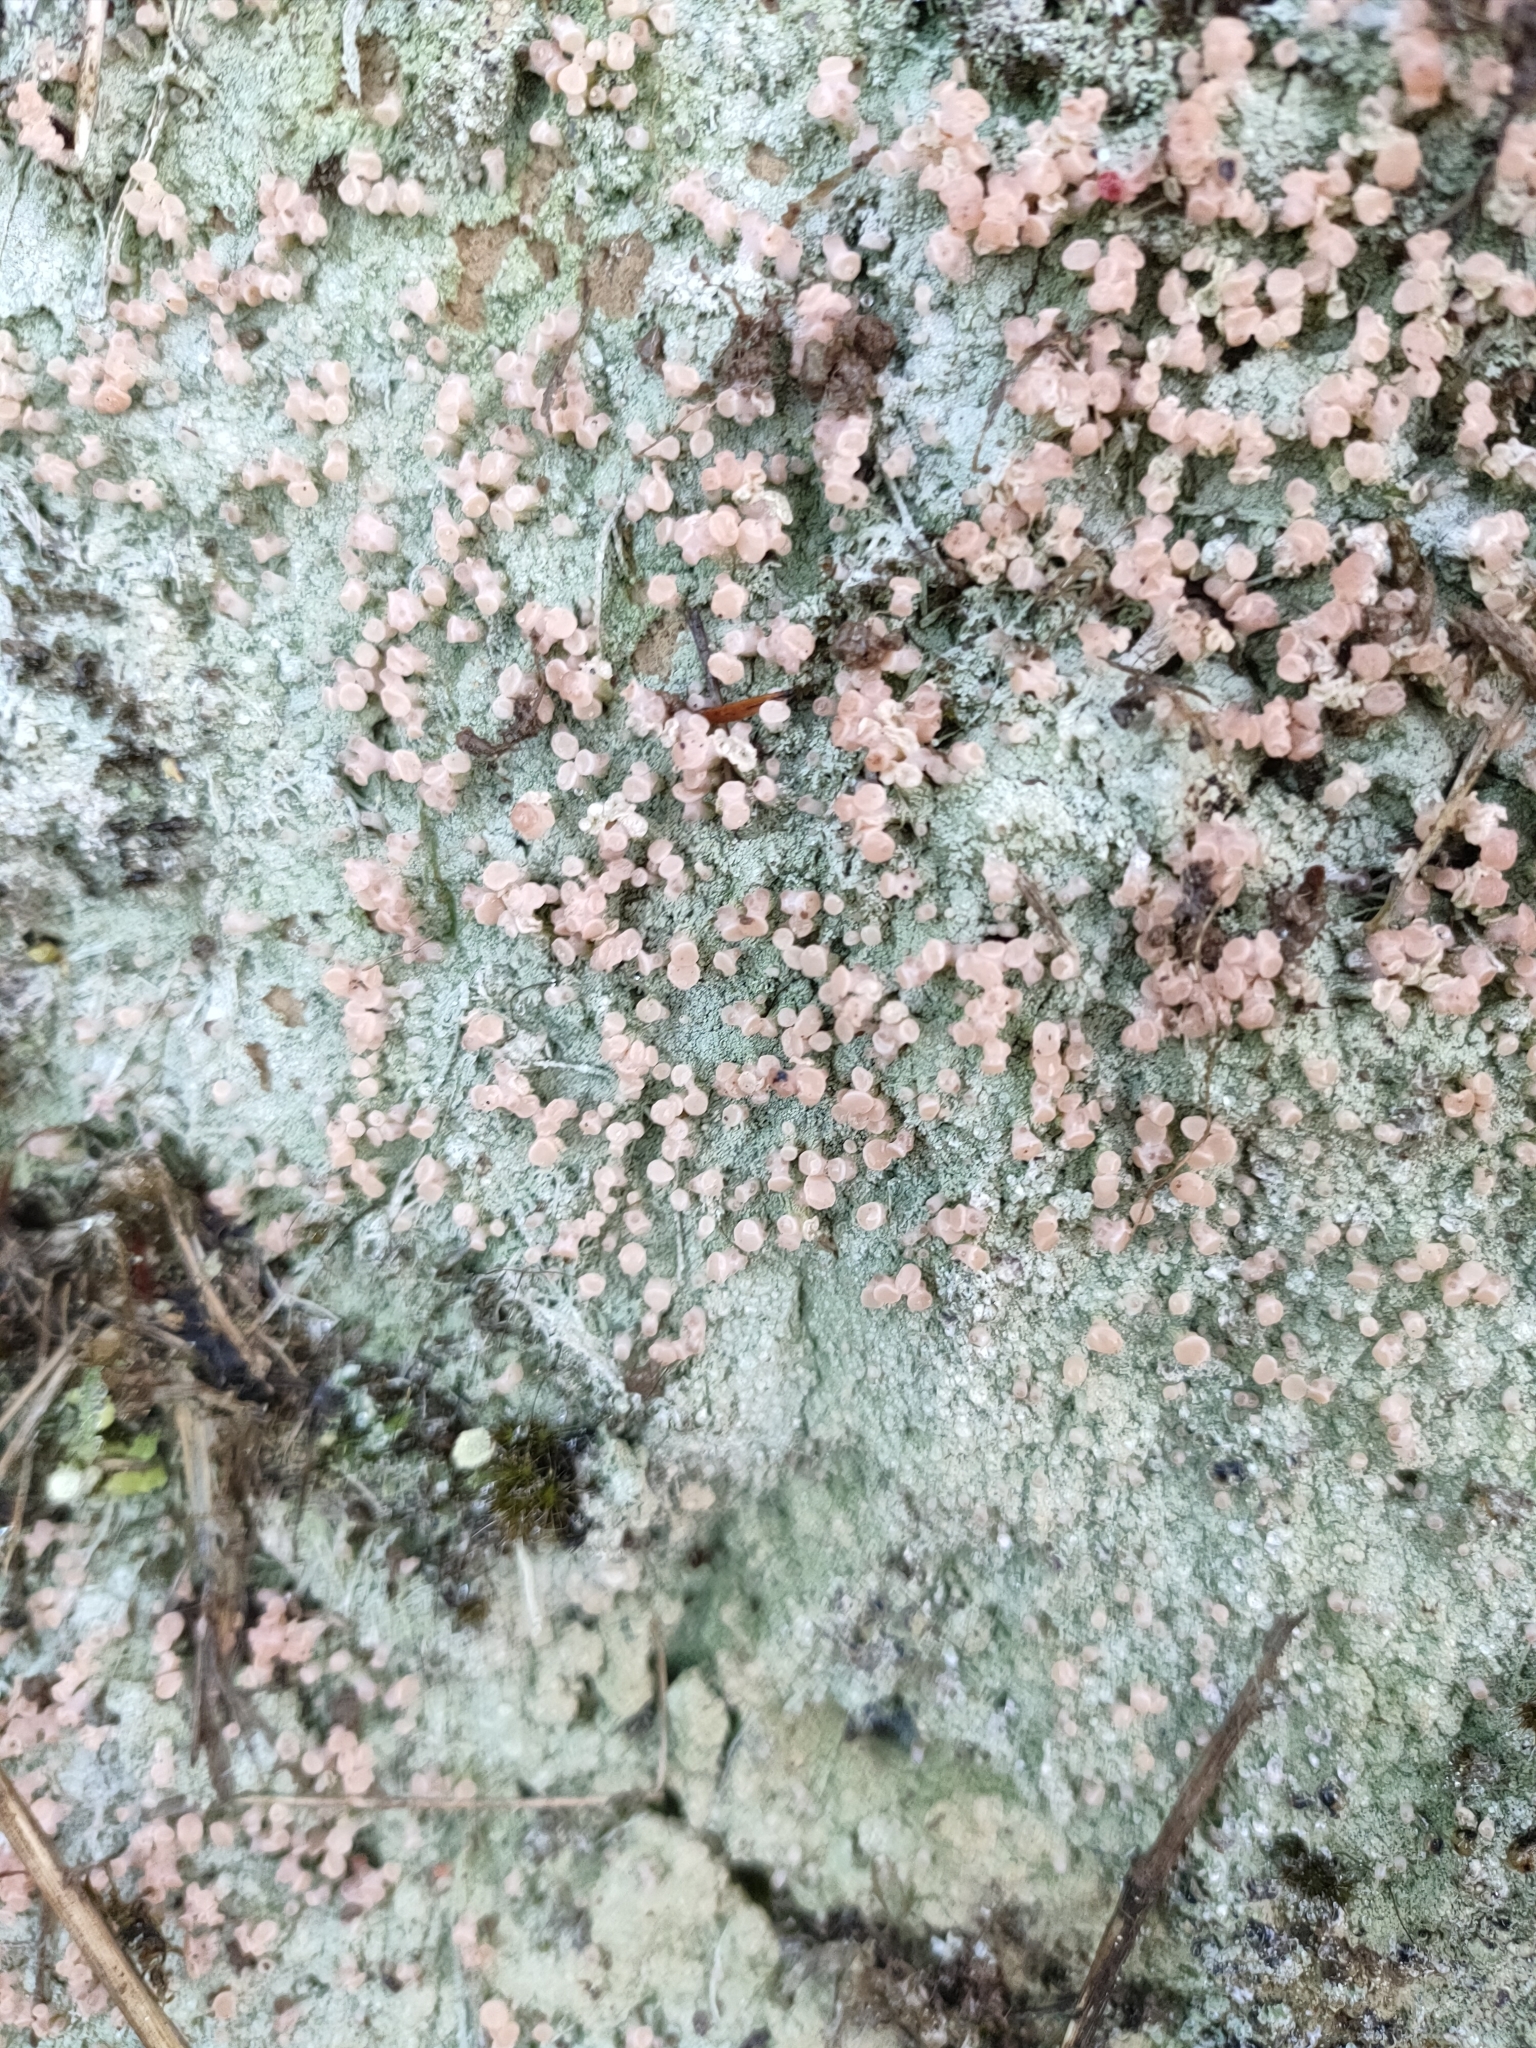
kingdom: Fungi
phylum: Ascomycota
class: Lecanoromycetes
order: Baeomycetales
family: Baeomycetaceae
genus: Baeomyces
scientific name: Baeomyces heteromorphus
